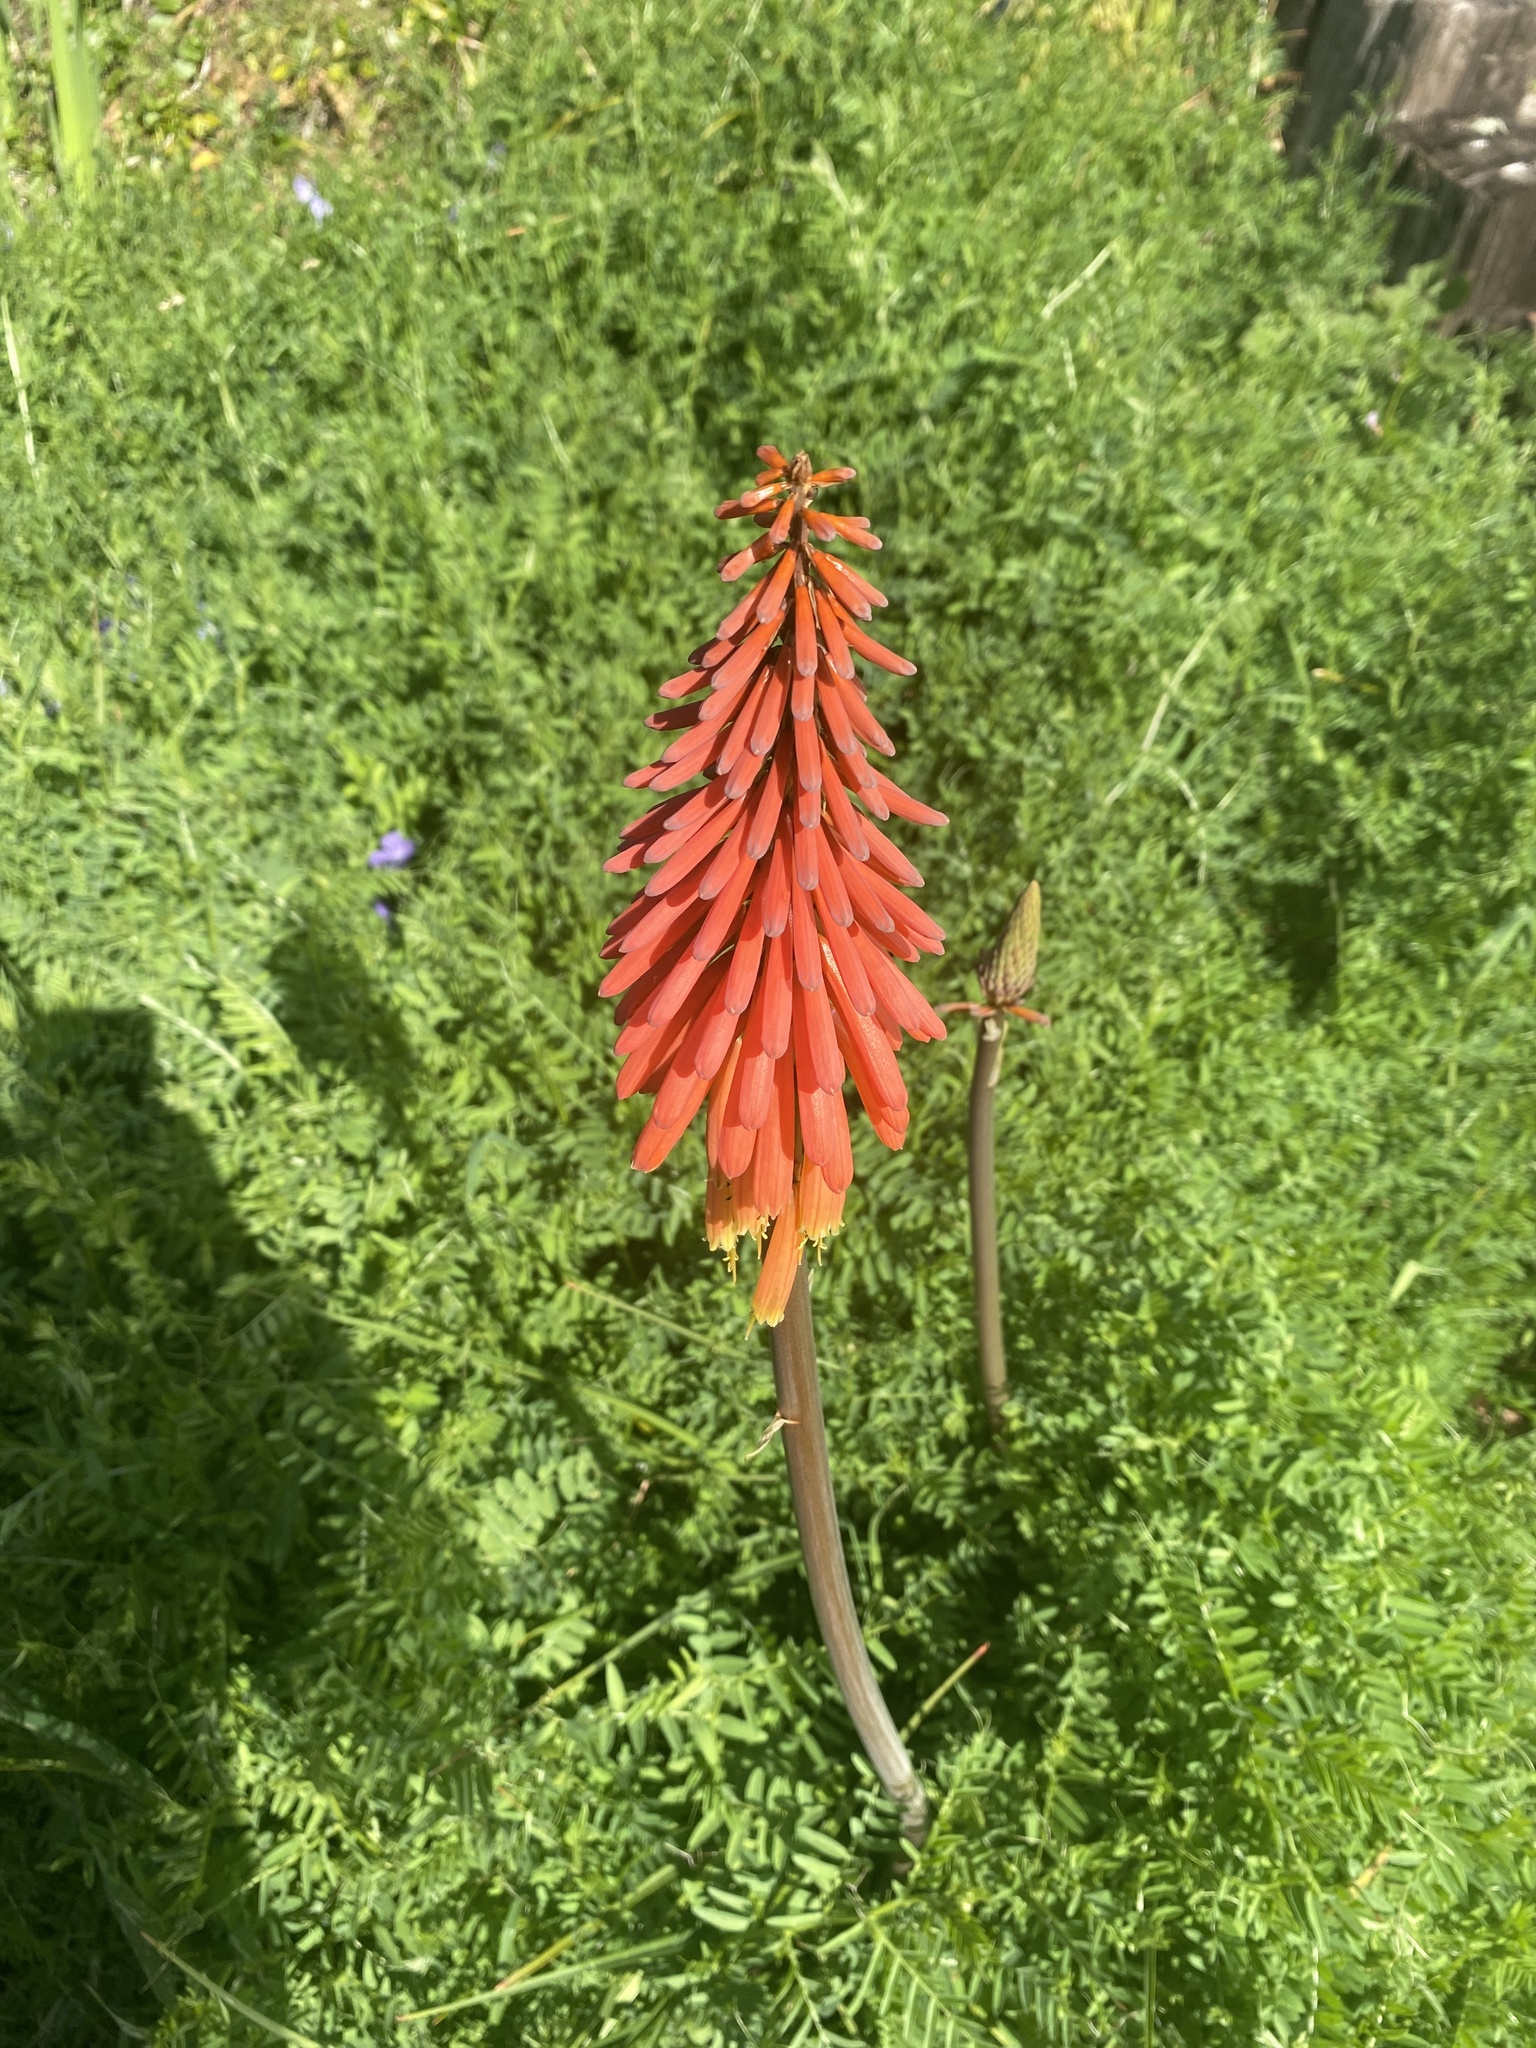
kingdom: Plantae
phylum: Tracheophyta
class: Liliopsida
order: Asparagales
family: Asphodelaceae
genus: Kniphofia
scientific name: Kniphofia uvaria
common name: Red-hot-poker
